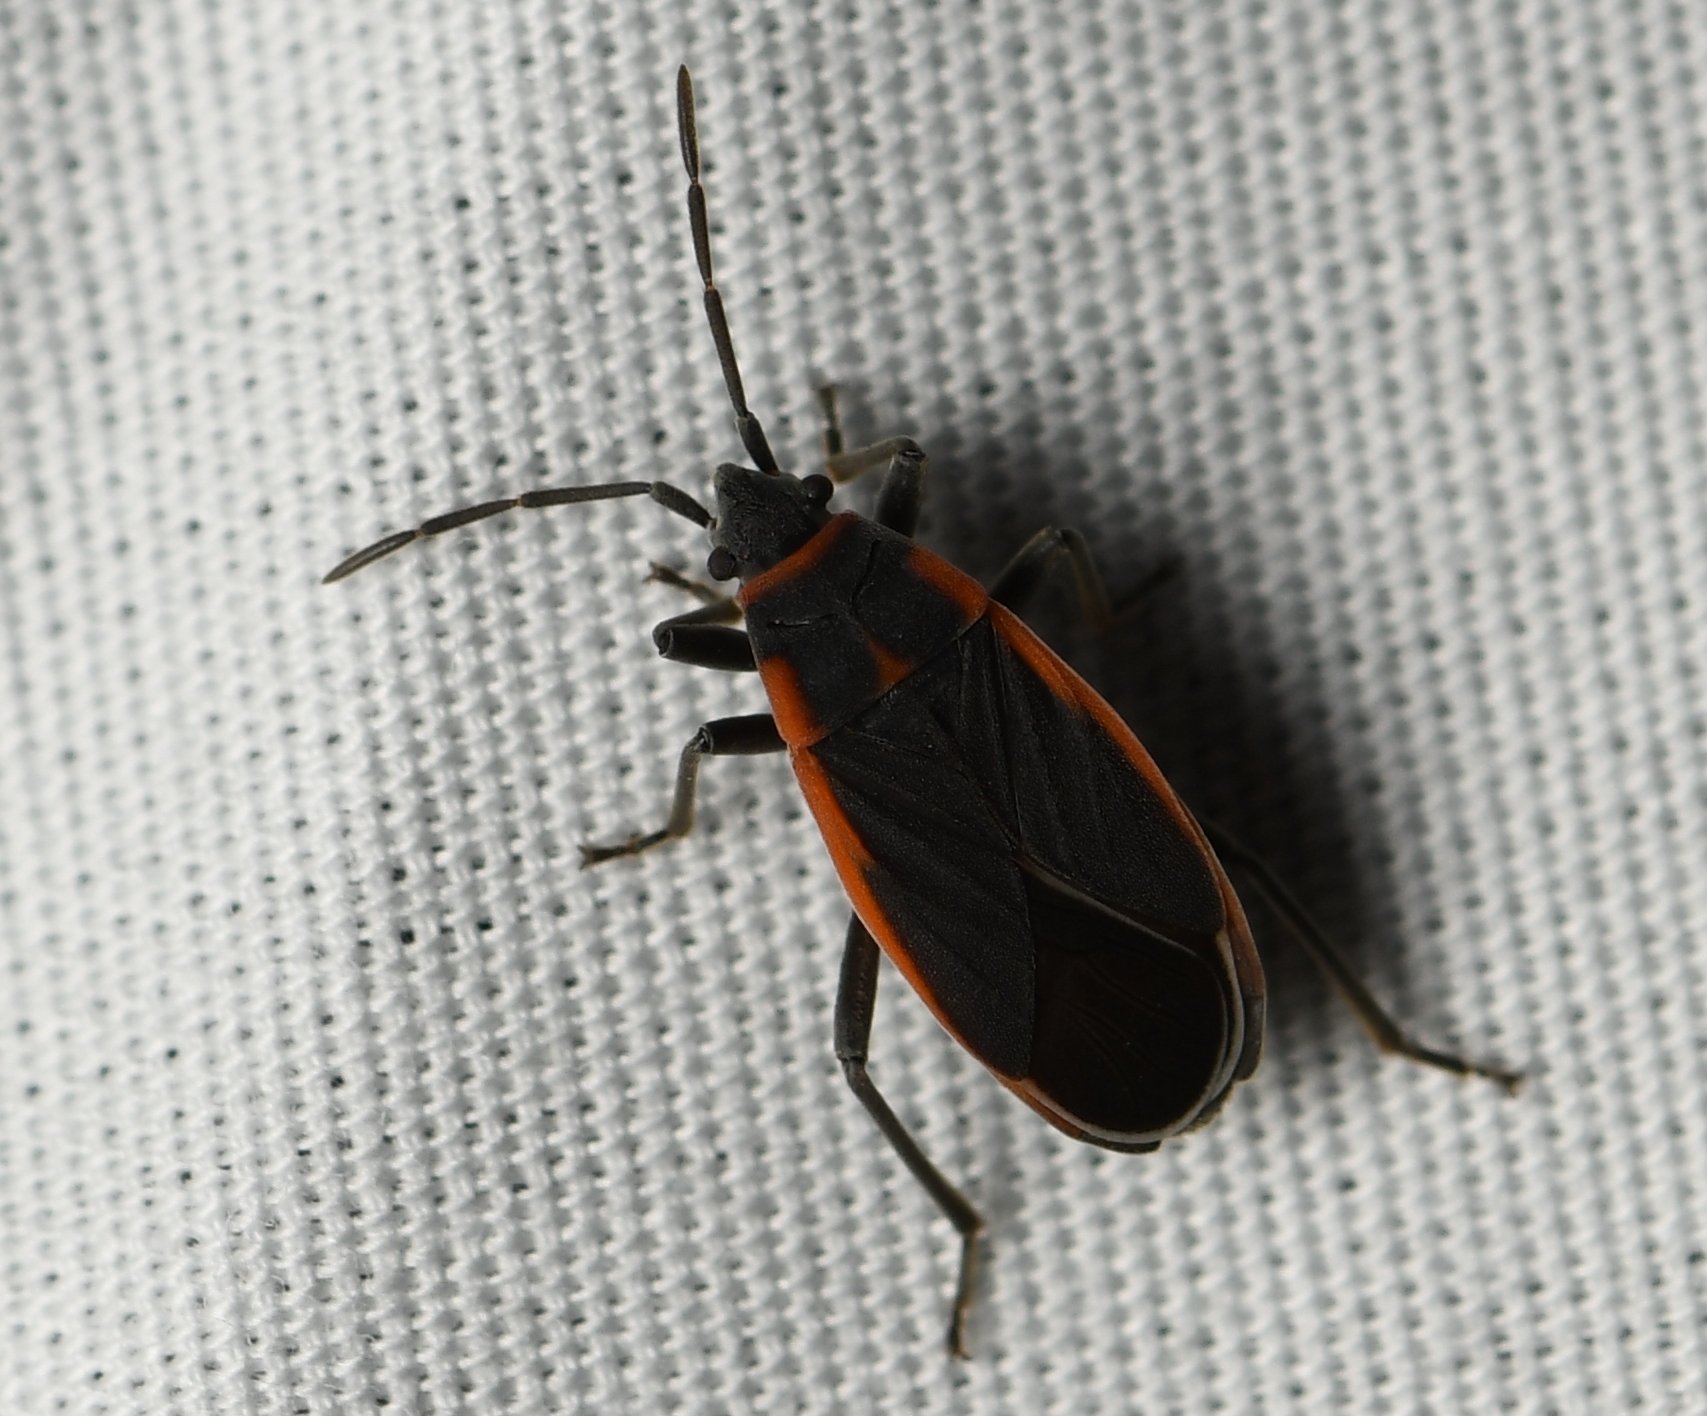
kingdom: Animalia
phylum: Arthropoda
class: Insecta
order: Hemiptera
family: Lygaeidae
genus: Melacoryphus
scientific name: Melacoryphus lateralis
